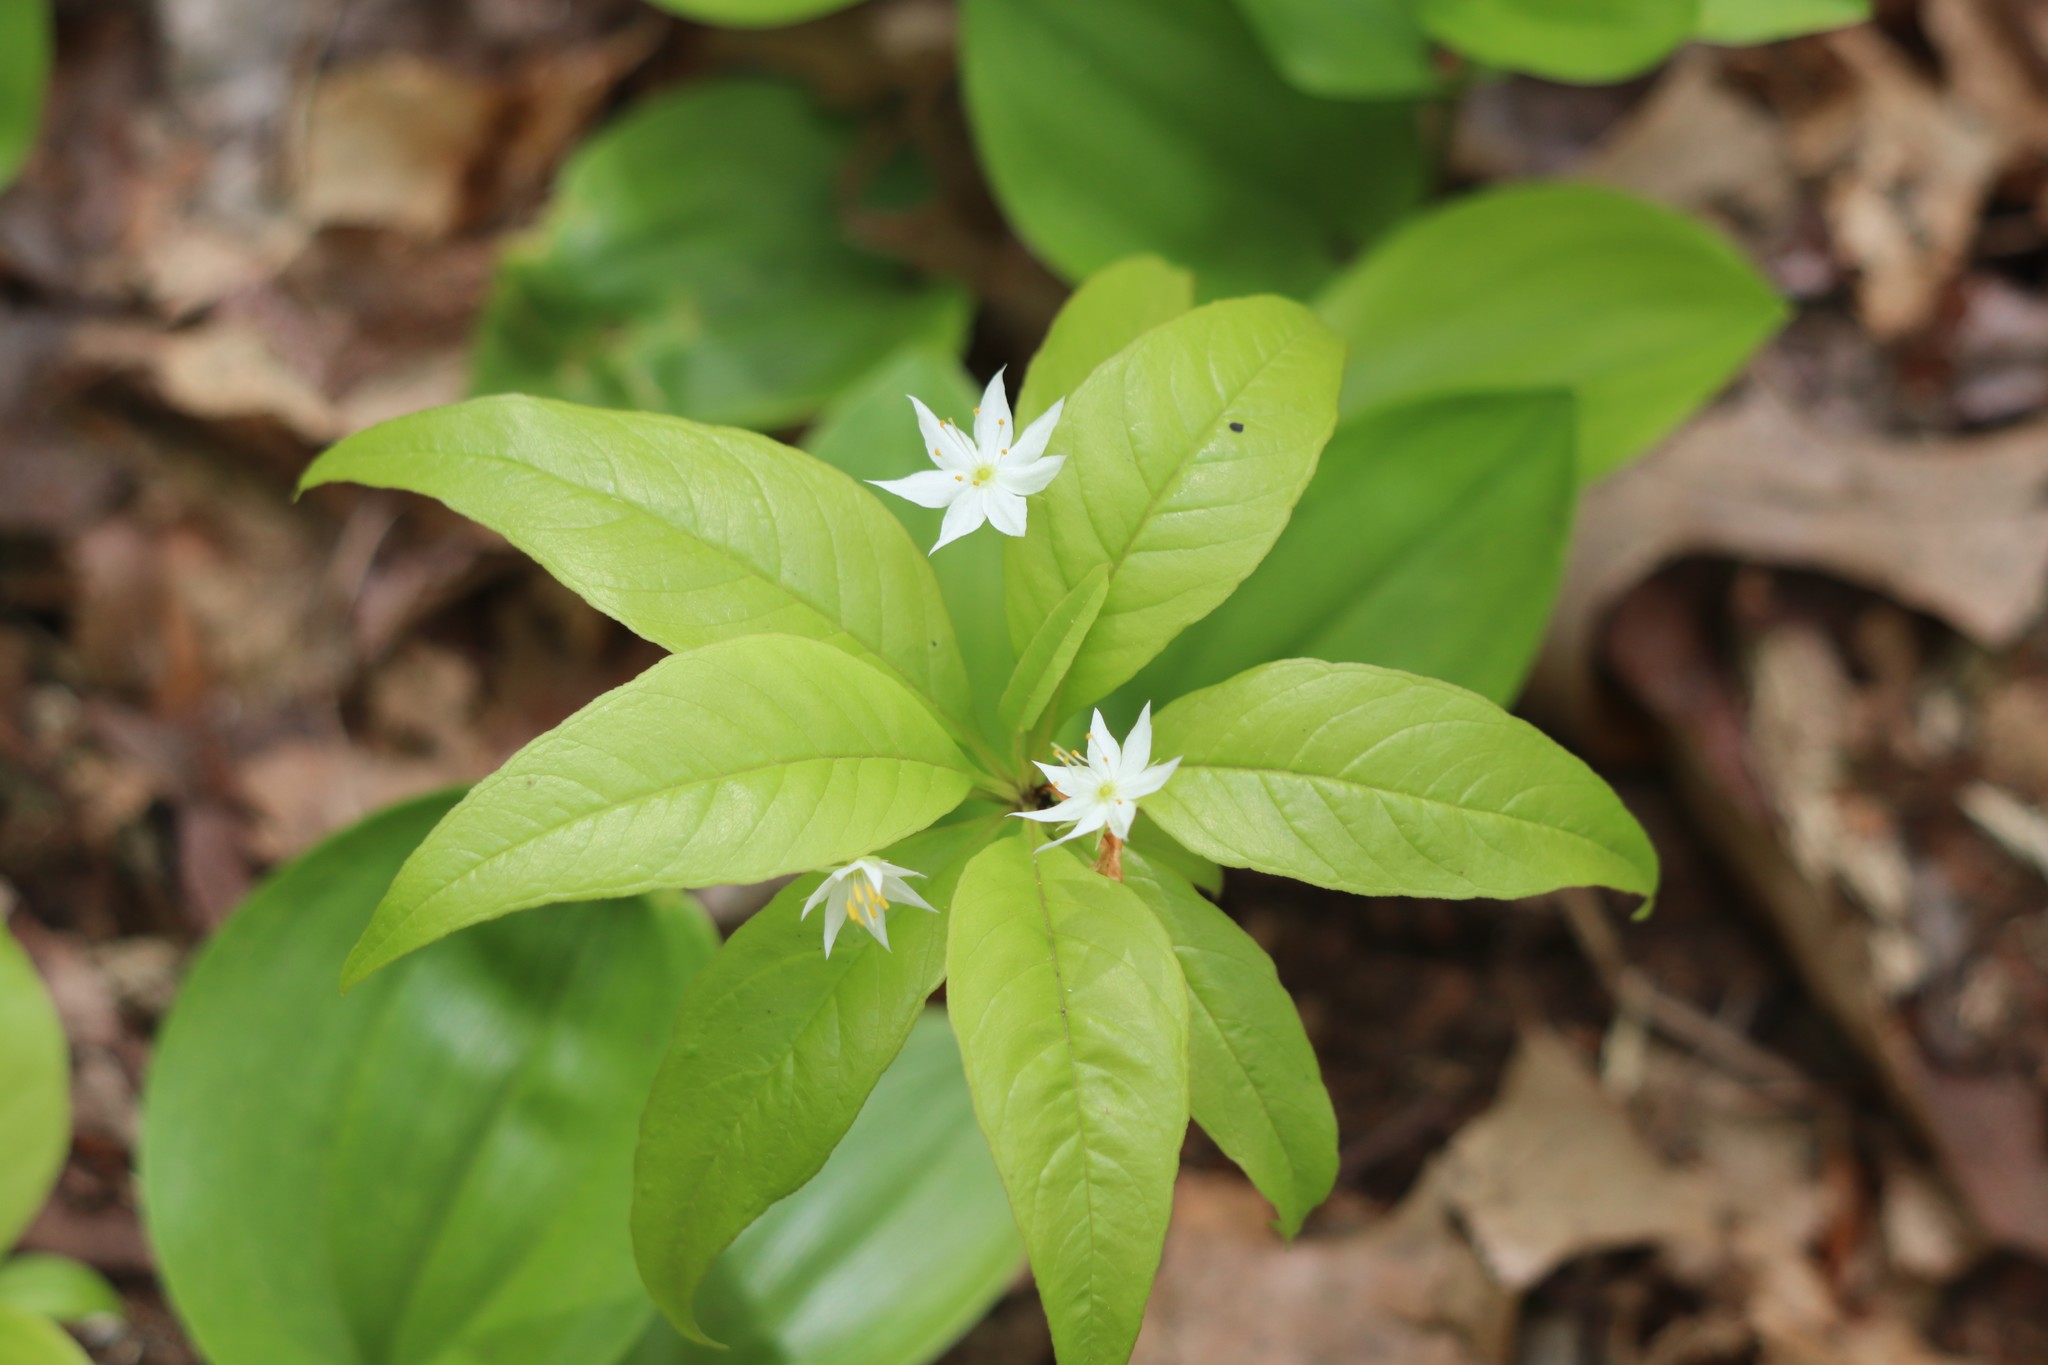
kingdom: Plantae
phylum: Tracheophyta
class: Magnoliopsida
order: Ericales
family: Primulaceae
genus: Lysimachia
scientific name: Lysimachia borealis
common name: American starflower
